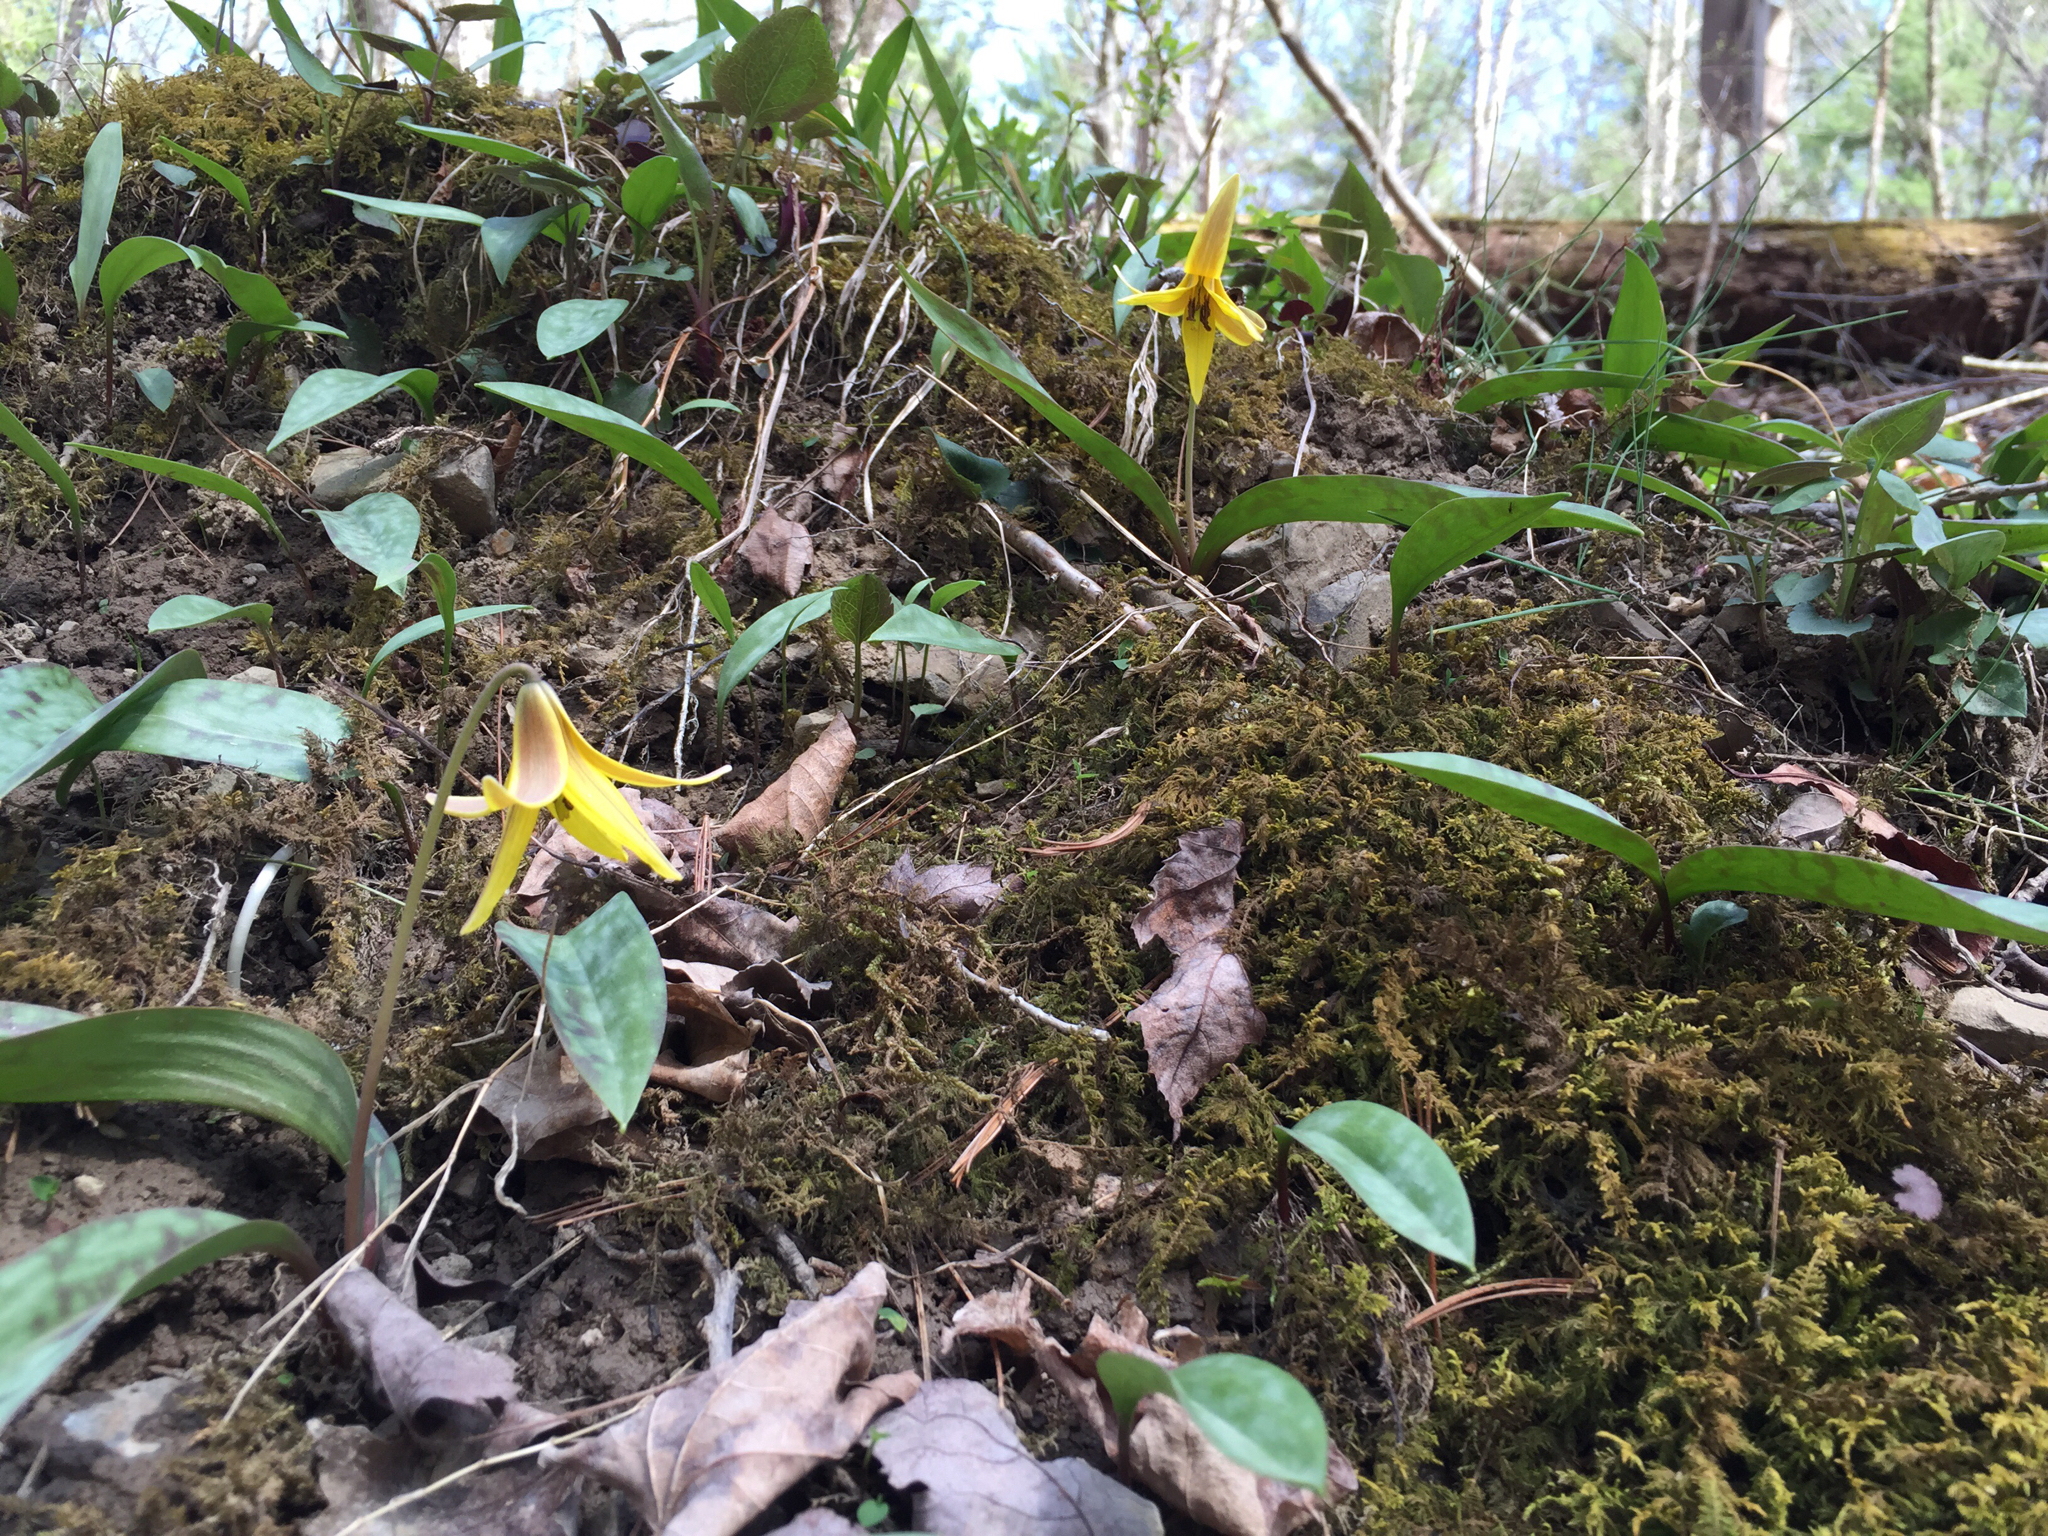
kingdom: Plantae
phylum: Tracheophyta
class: Liliopsida
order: Liliales
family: Liliaceae
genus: Erythronium
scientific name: Erythronium americanum
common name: Yellow adder's-tongue
